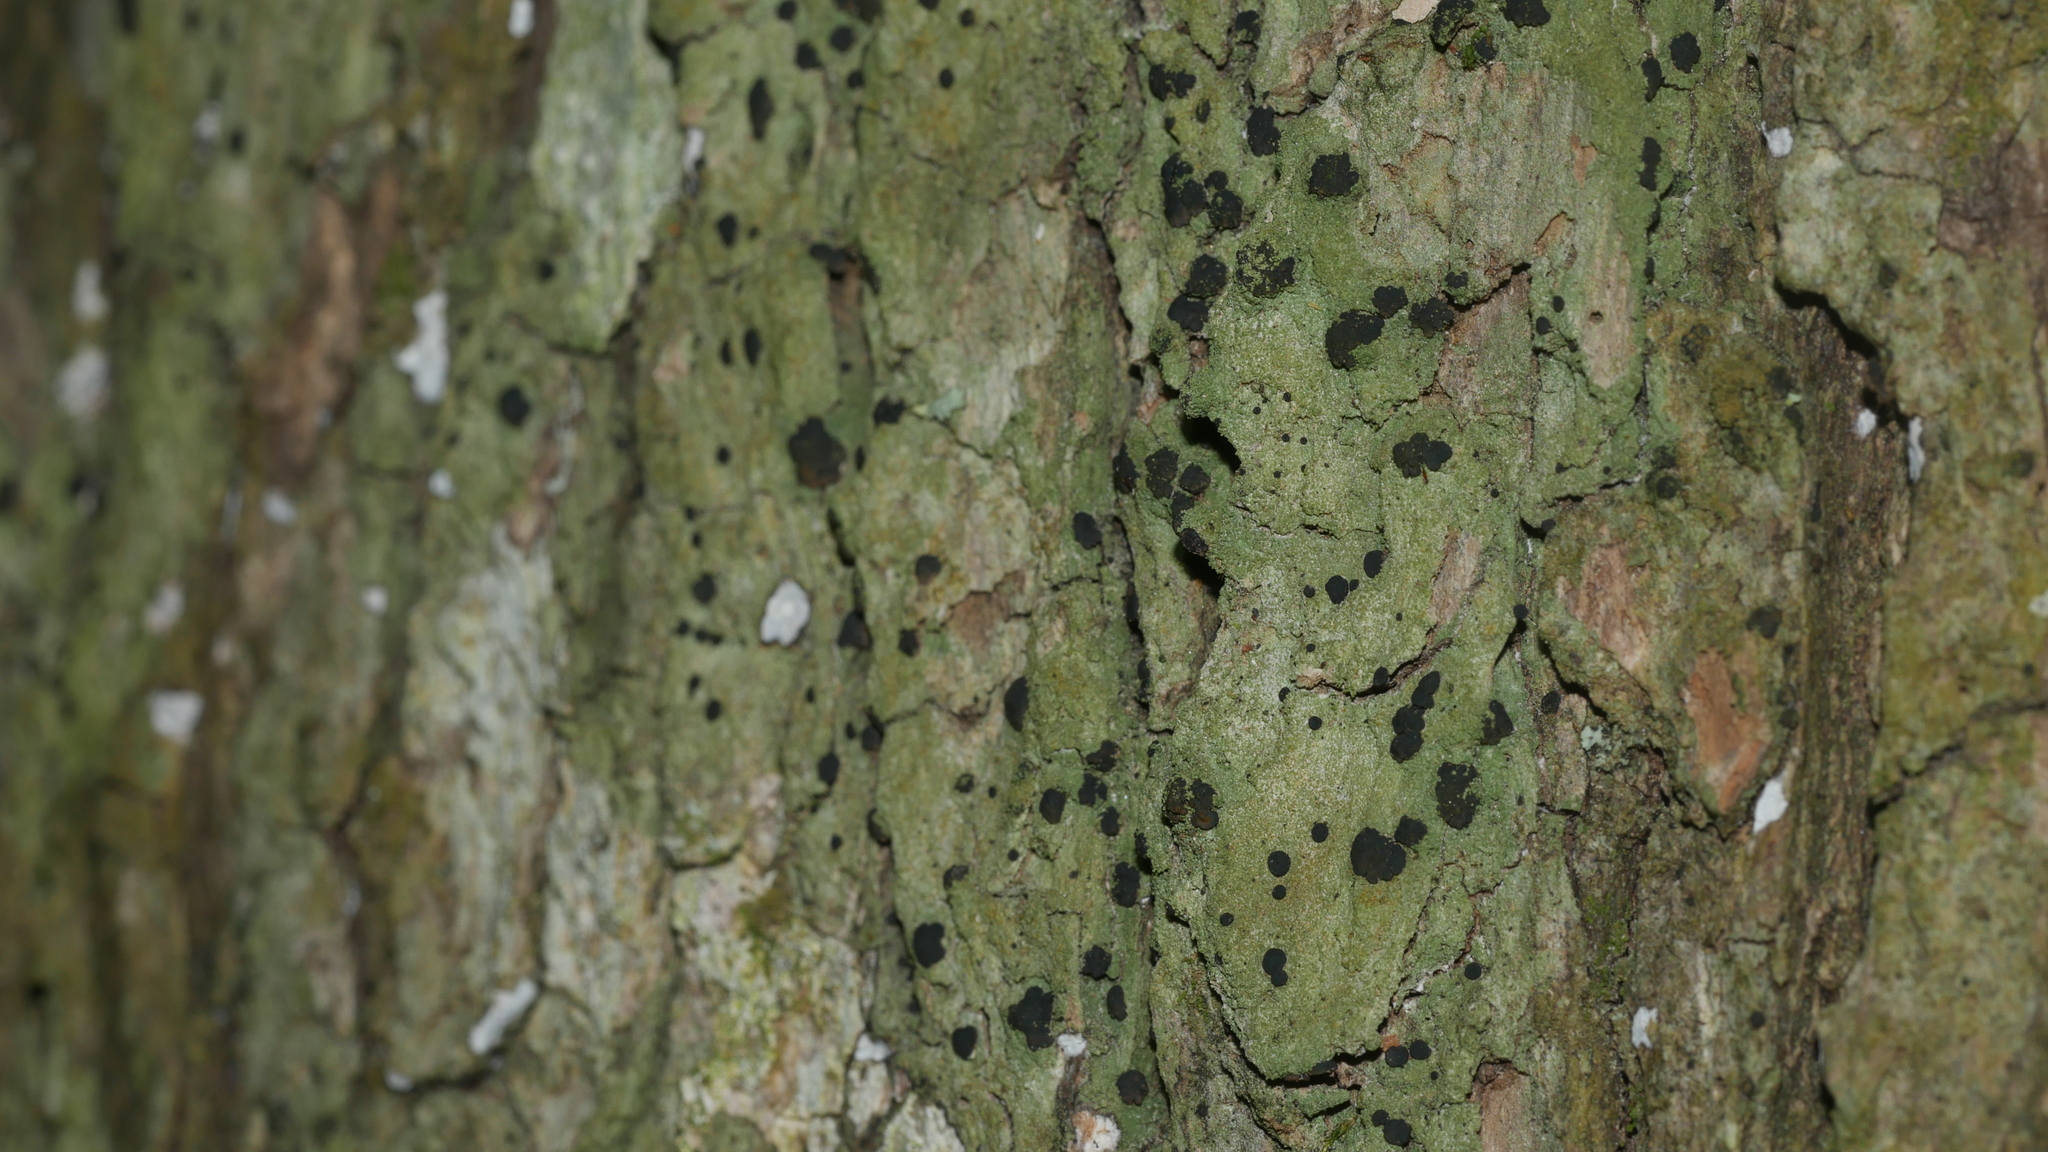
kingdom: Fungi
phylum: Ascomycota
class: Lecanoromycetes
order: Lecanorales
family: Ramalinaceae
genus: Bacidia
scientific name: Bacidia schweinitzii
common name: Surprise lichen
